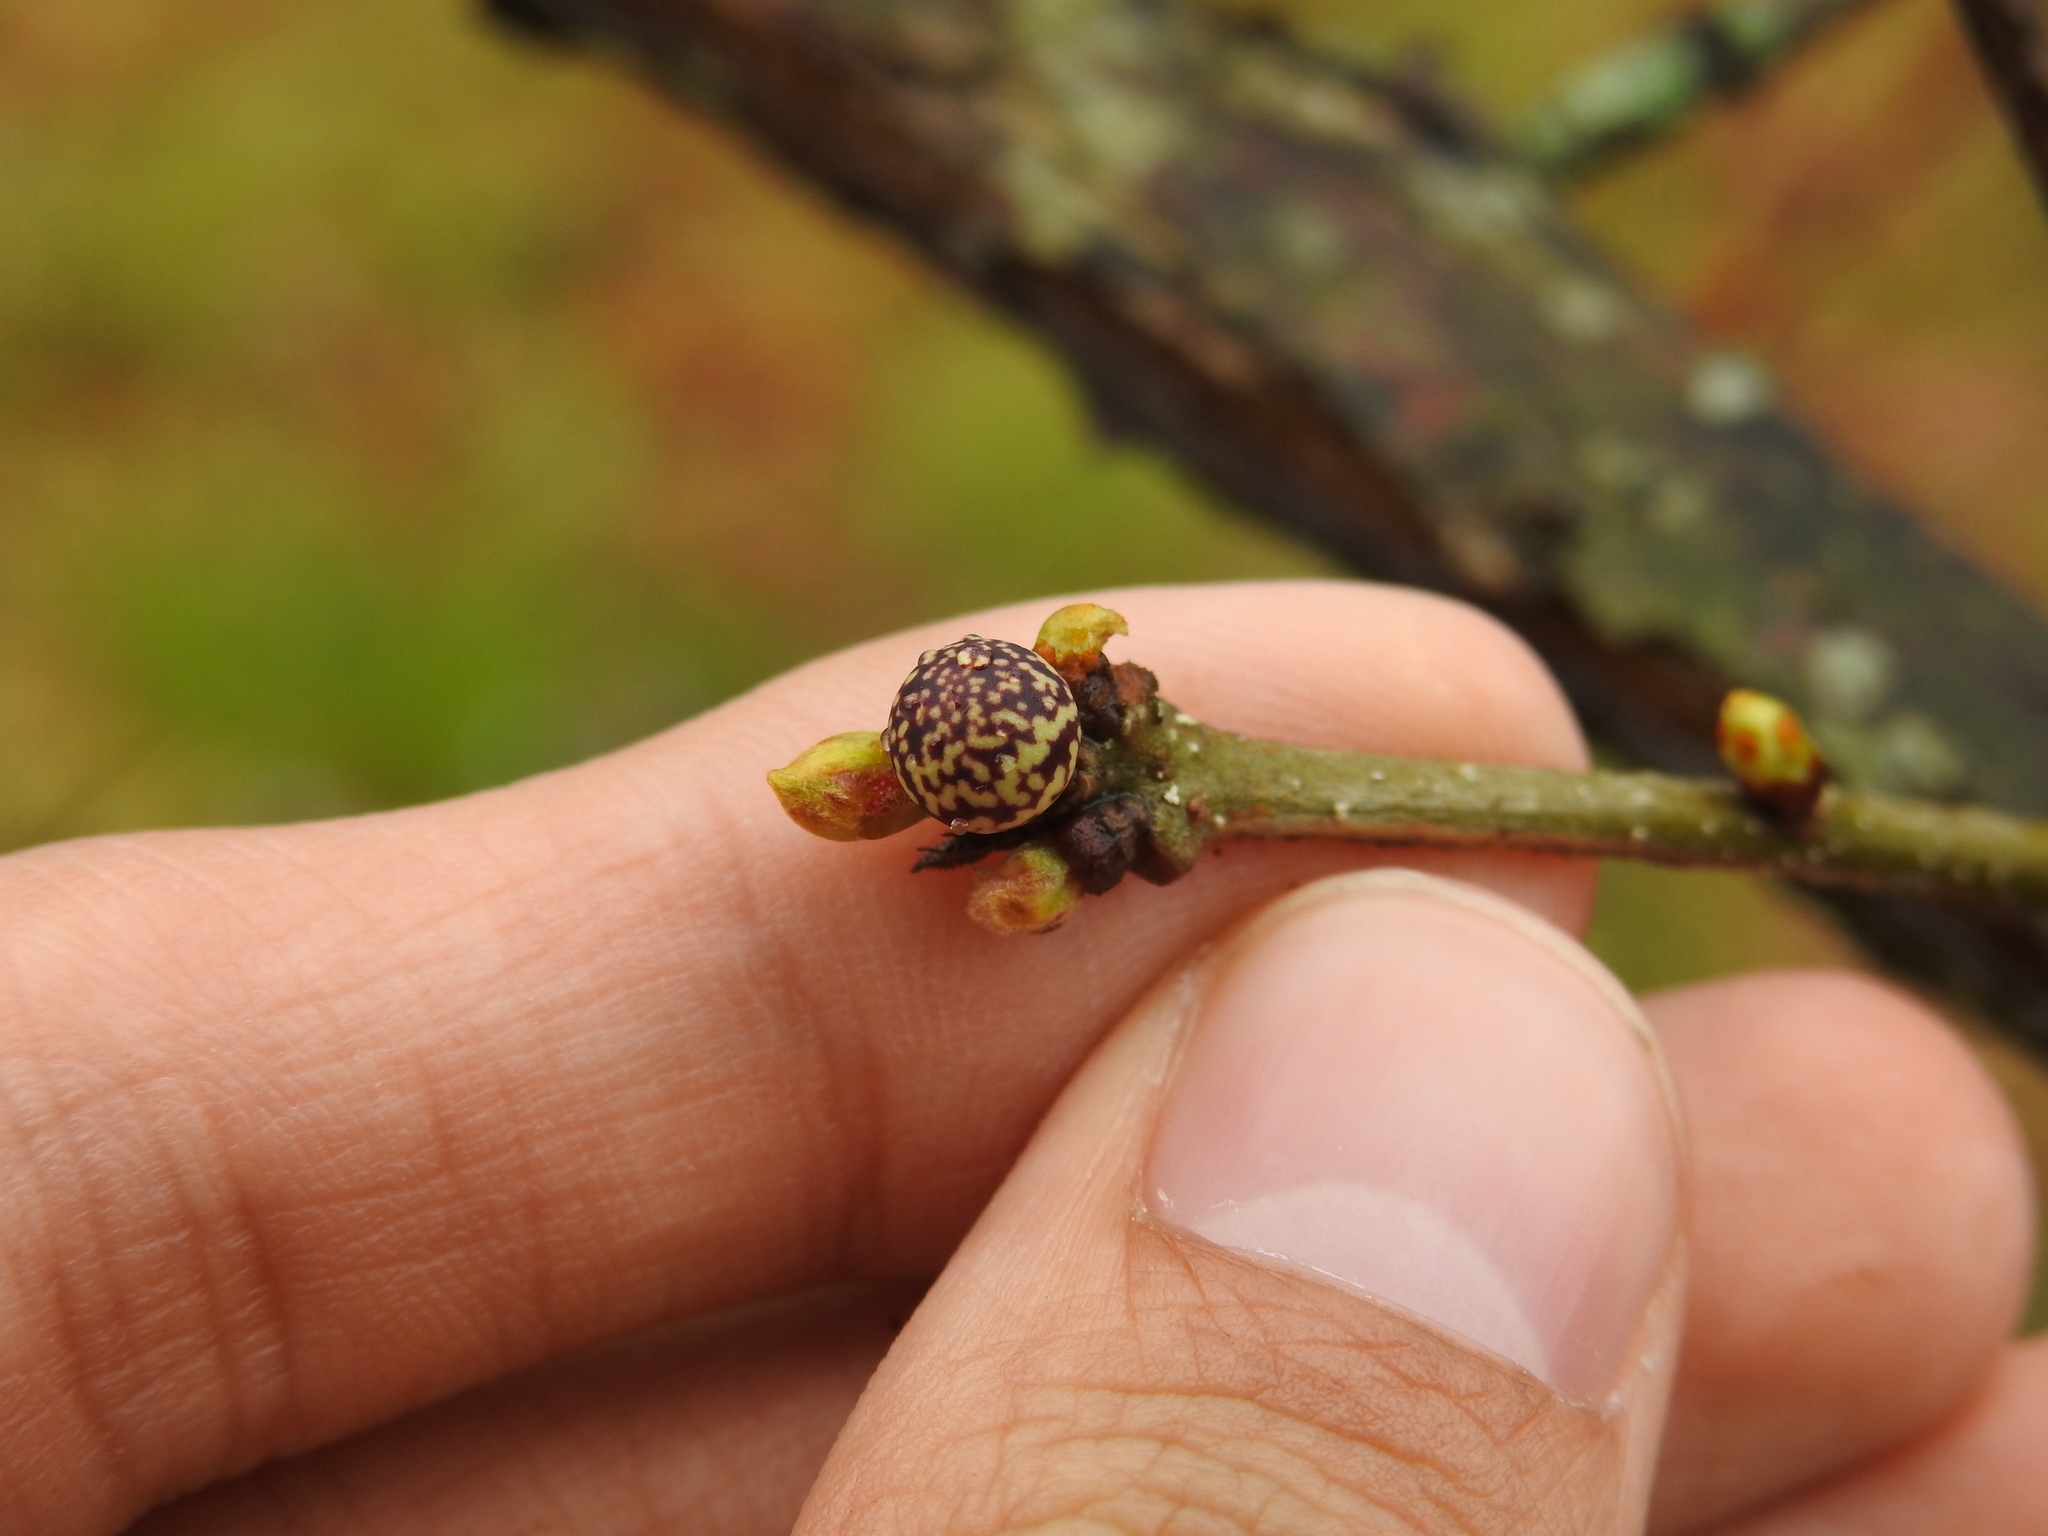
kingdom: Animalia
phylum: Arthropoda
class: Insecta
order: Hymenoptera
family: Cynipidae
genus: Andricus
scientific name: Andricus
